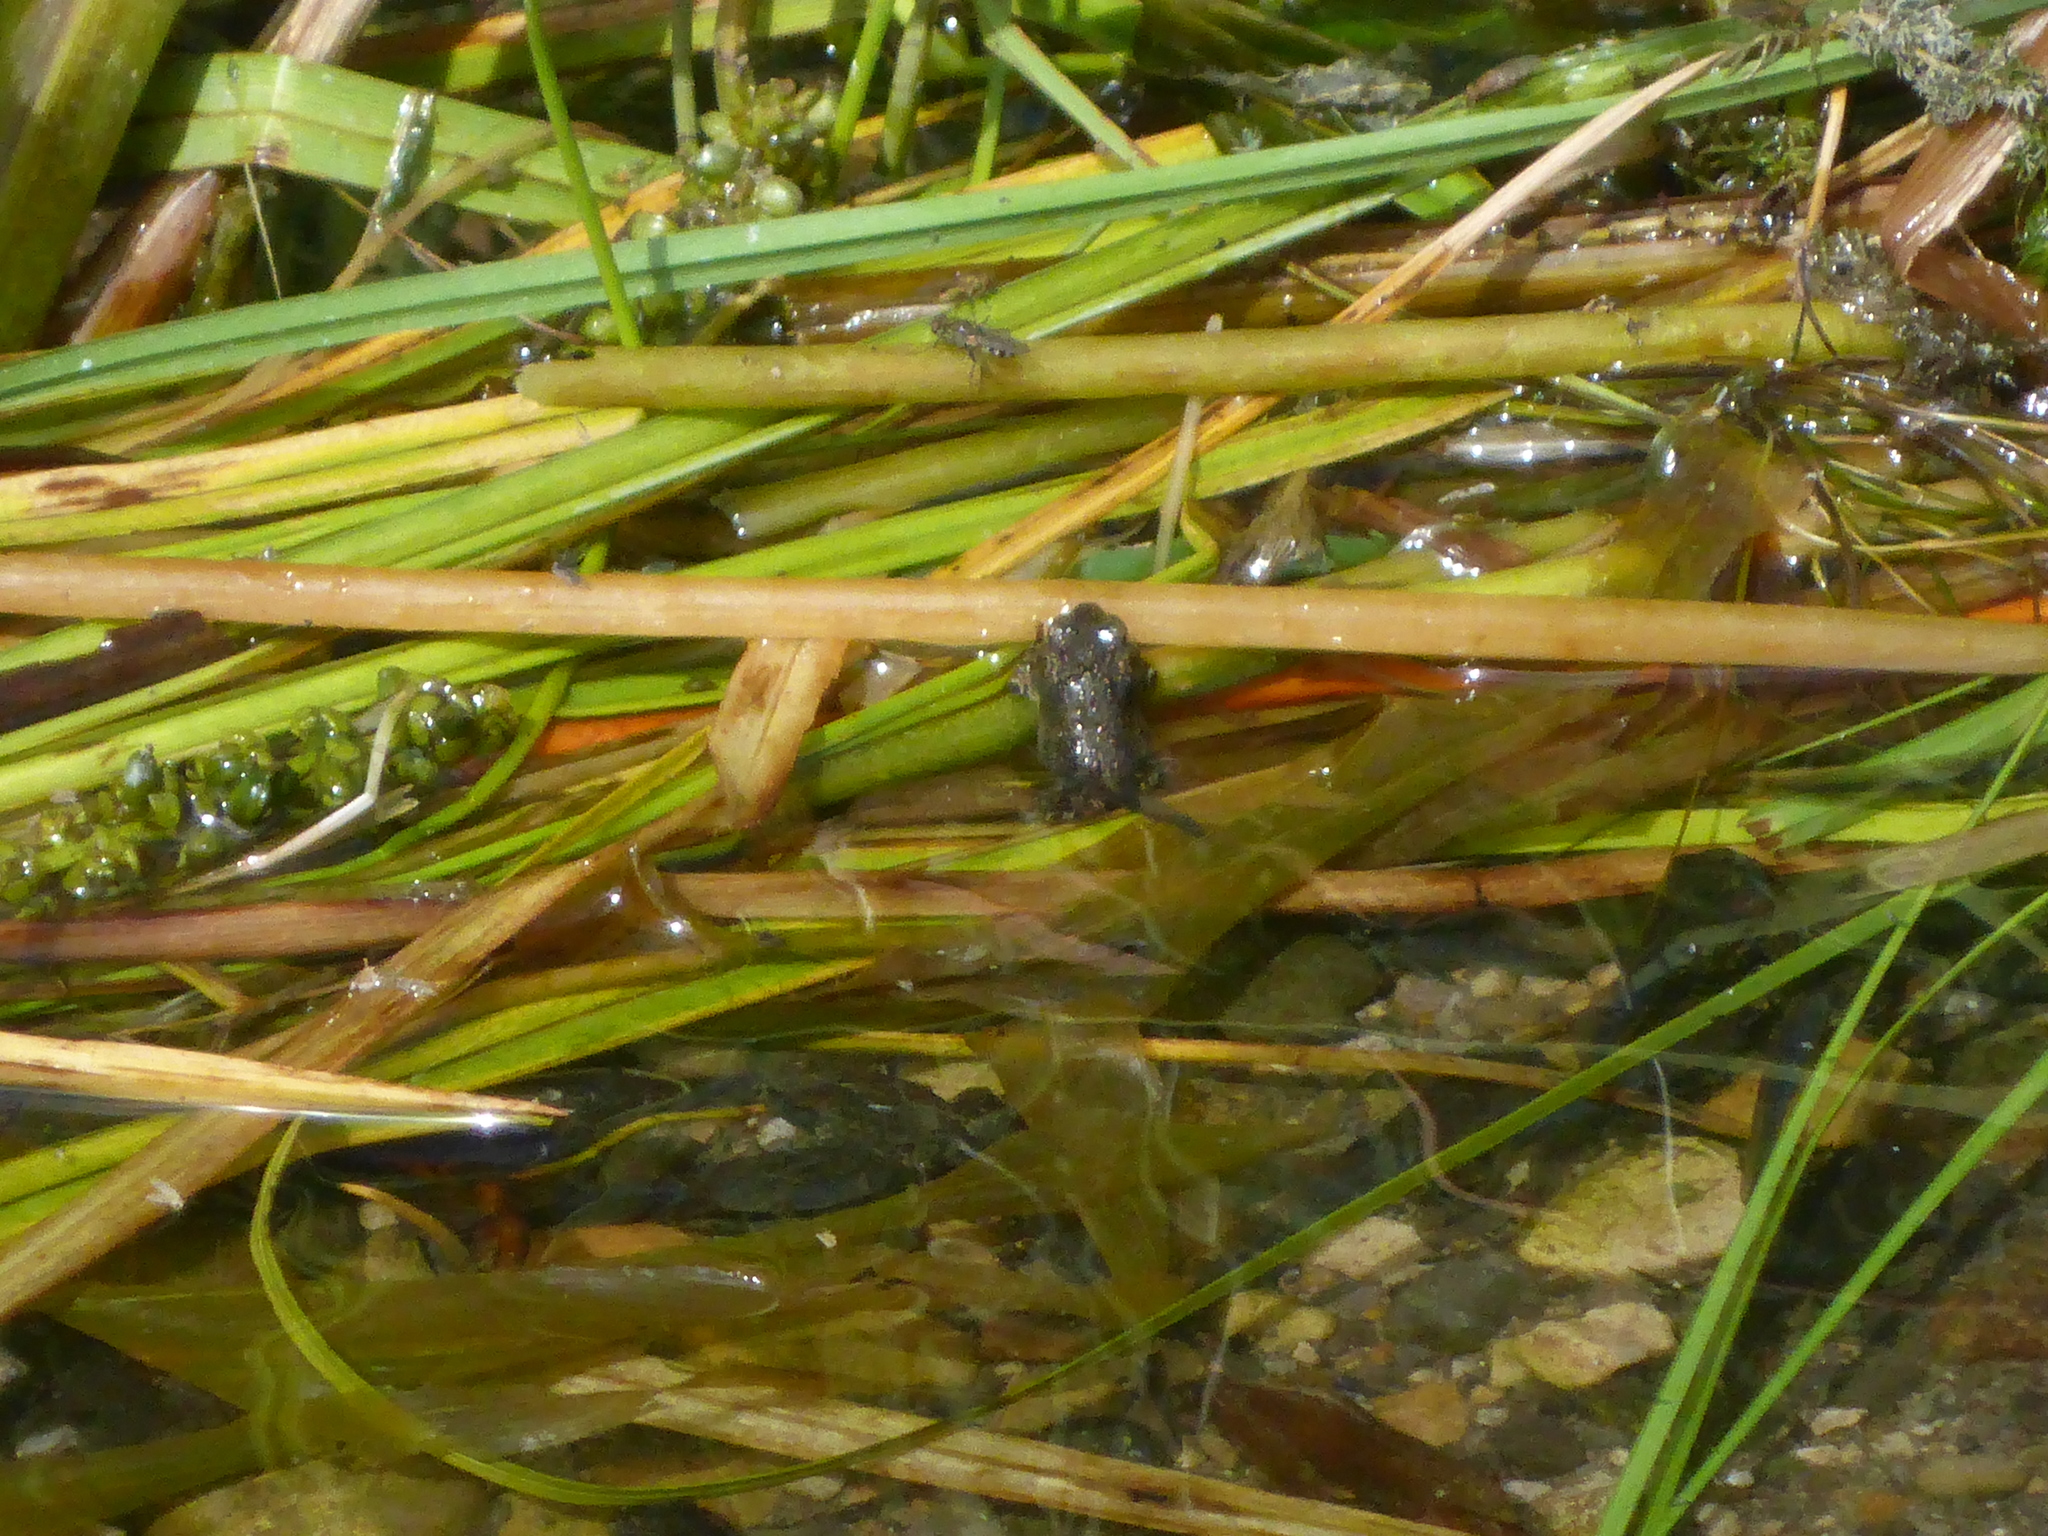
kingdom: Animalia
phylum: Chordata
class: Amphibia
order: Anura
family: Bufonidae
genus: Anaxyrus
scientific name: Anaxyrus boreas
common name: Western toad
